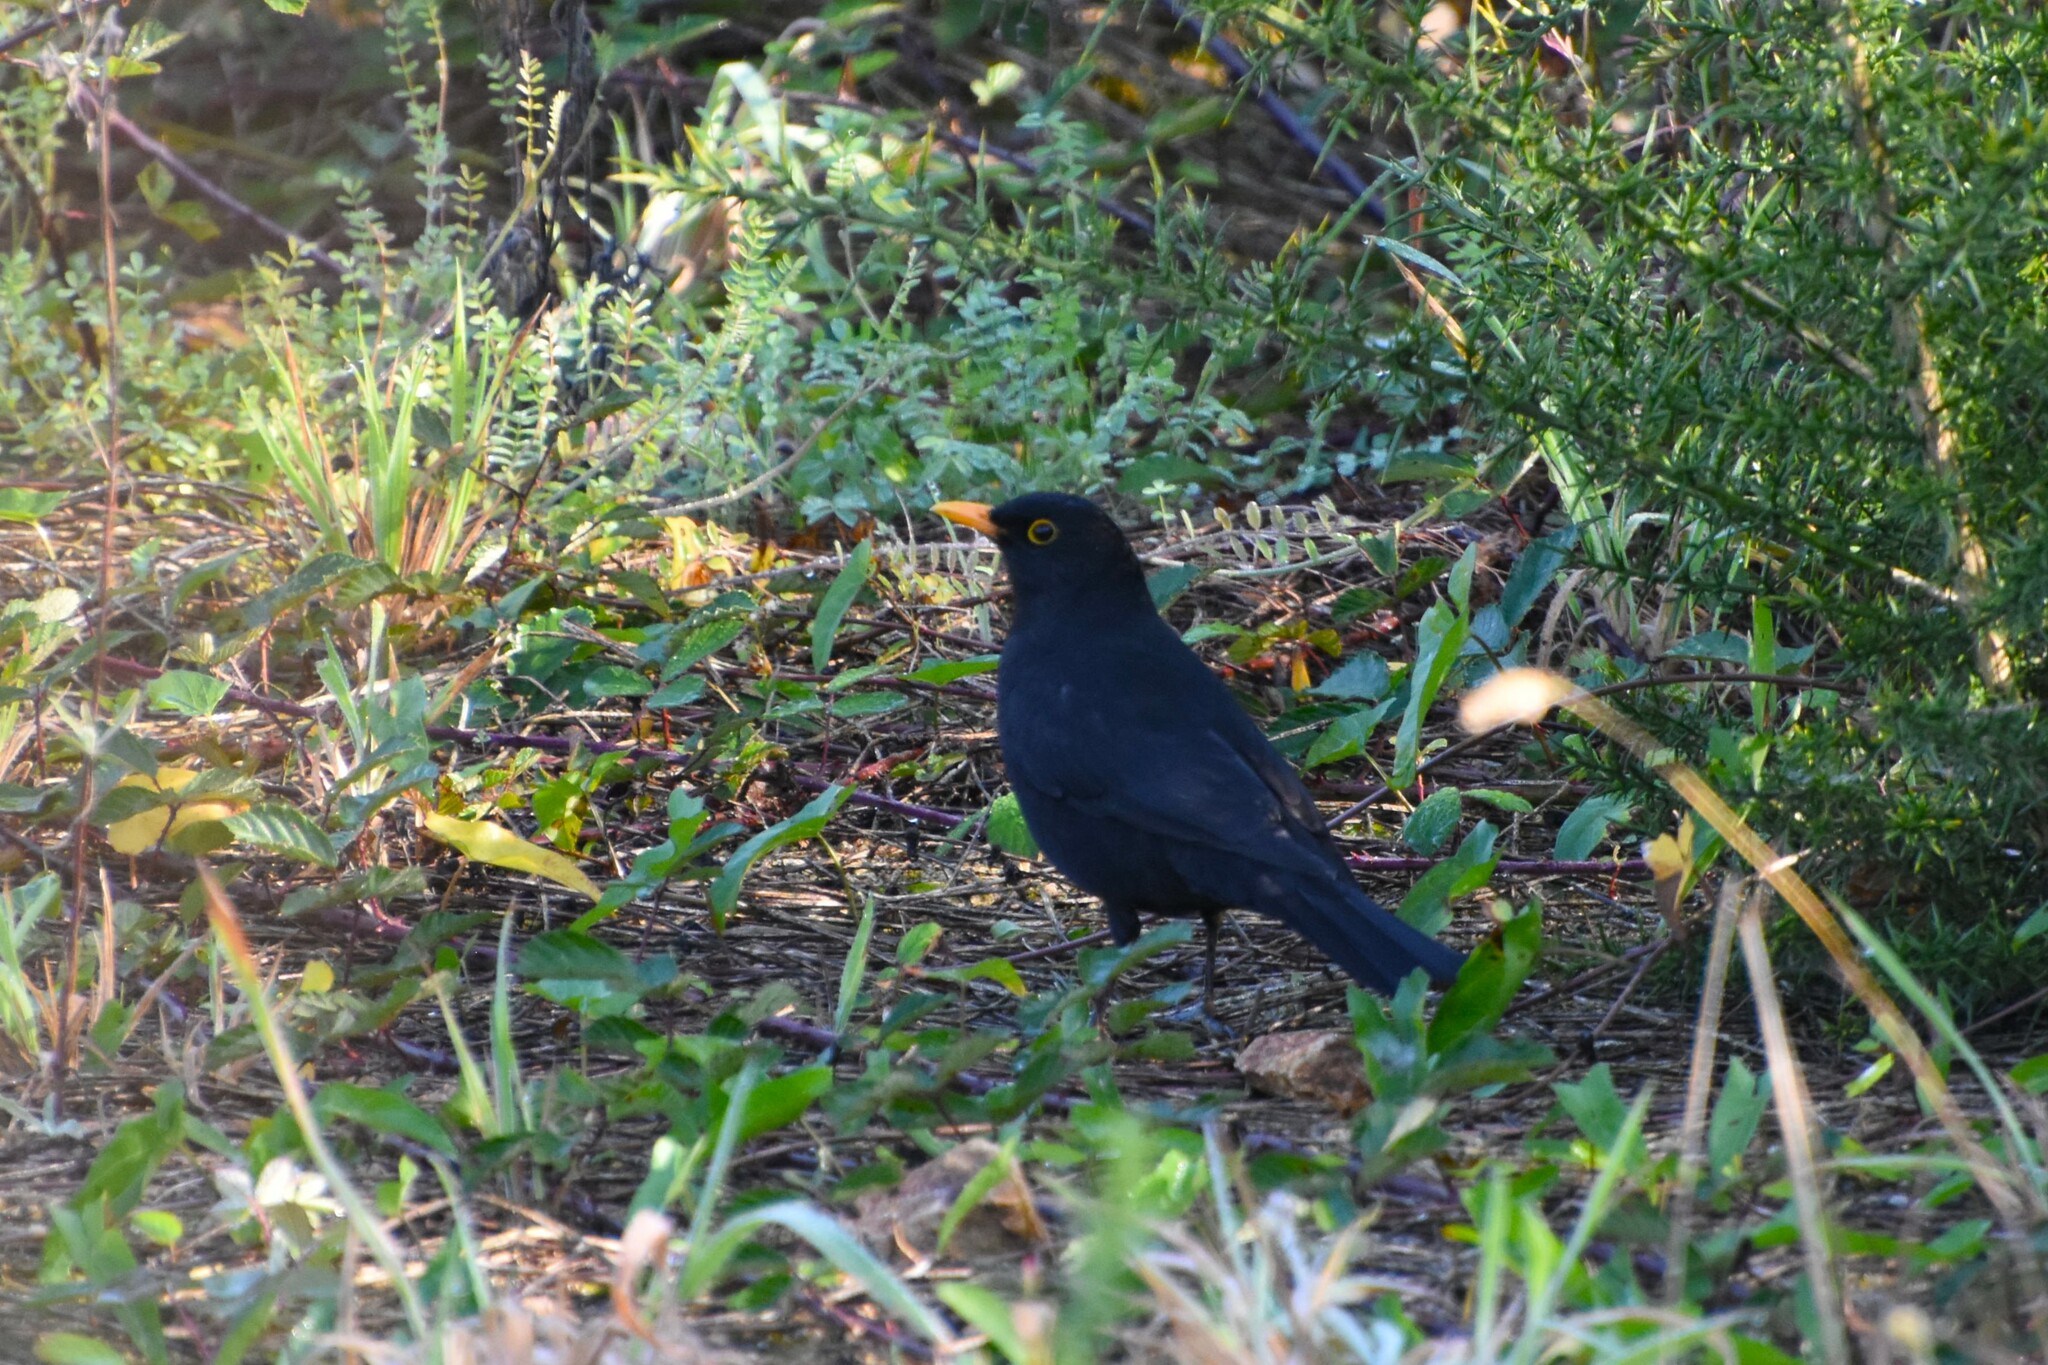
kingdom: Animalia
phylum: Chordata
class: Aves
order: Passeriformes
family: Turdidae
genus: Turdus
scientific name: Turdus merula
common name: Common blackbird
